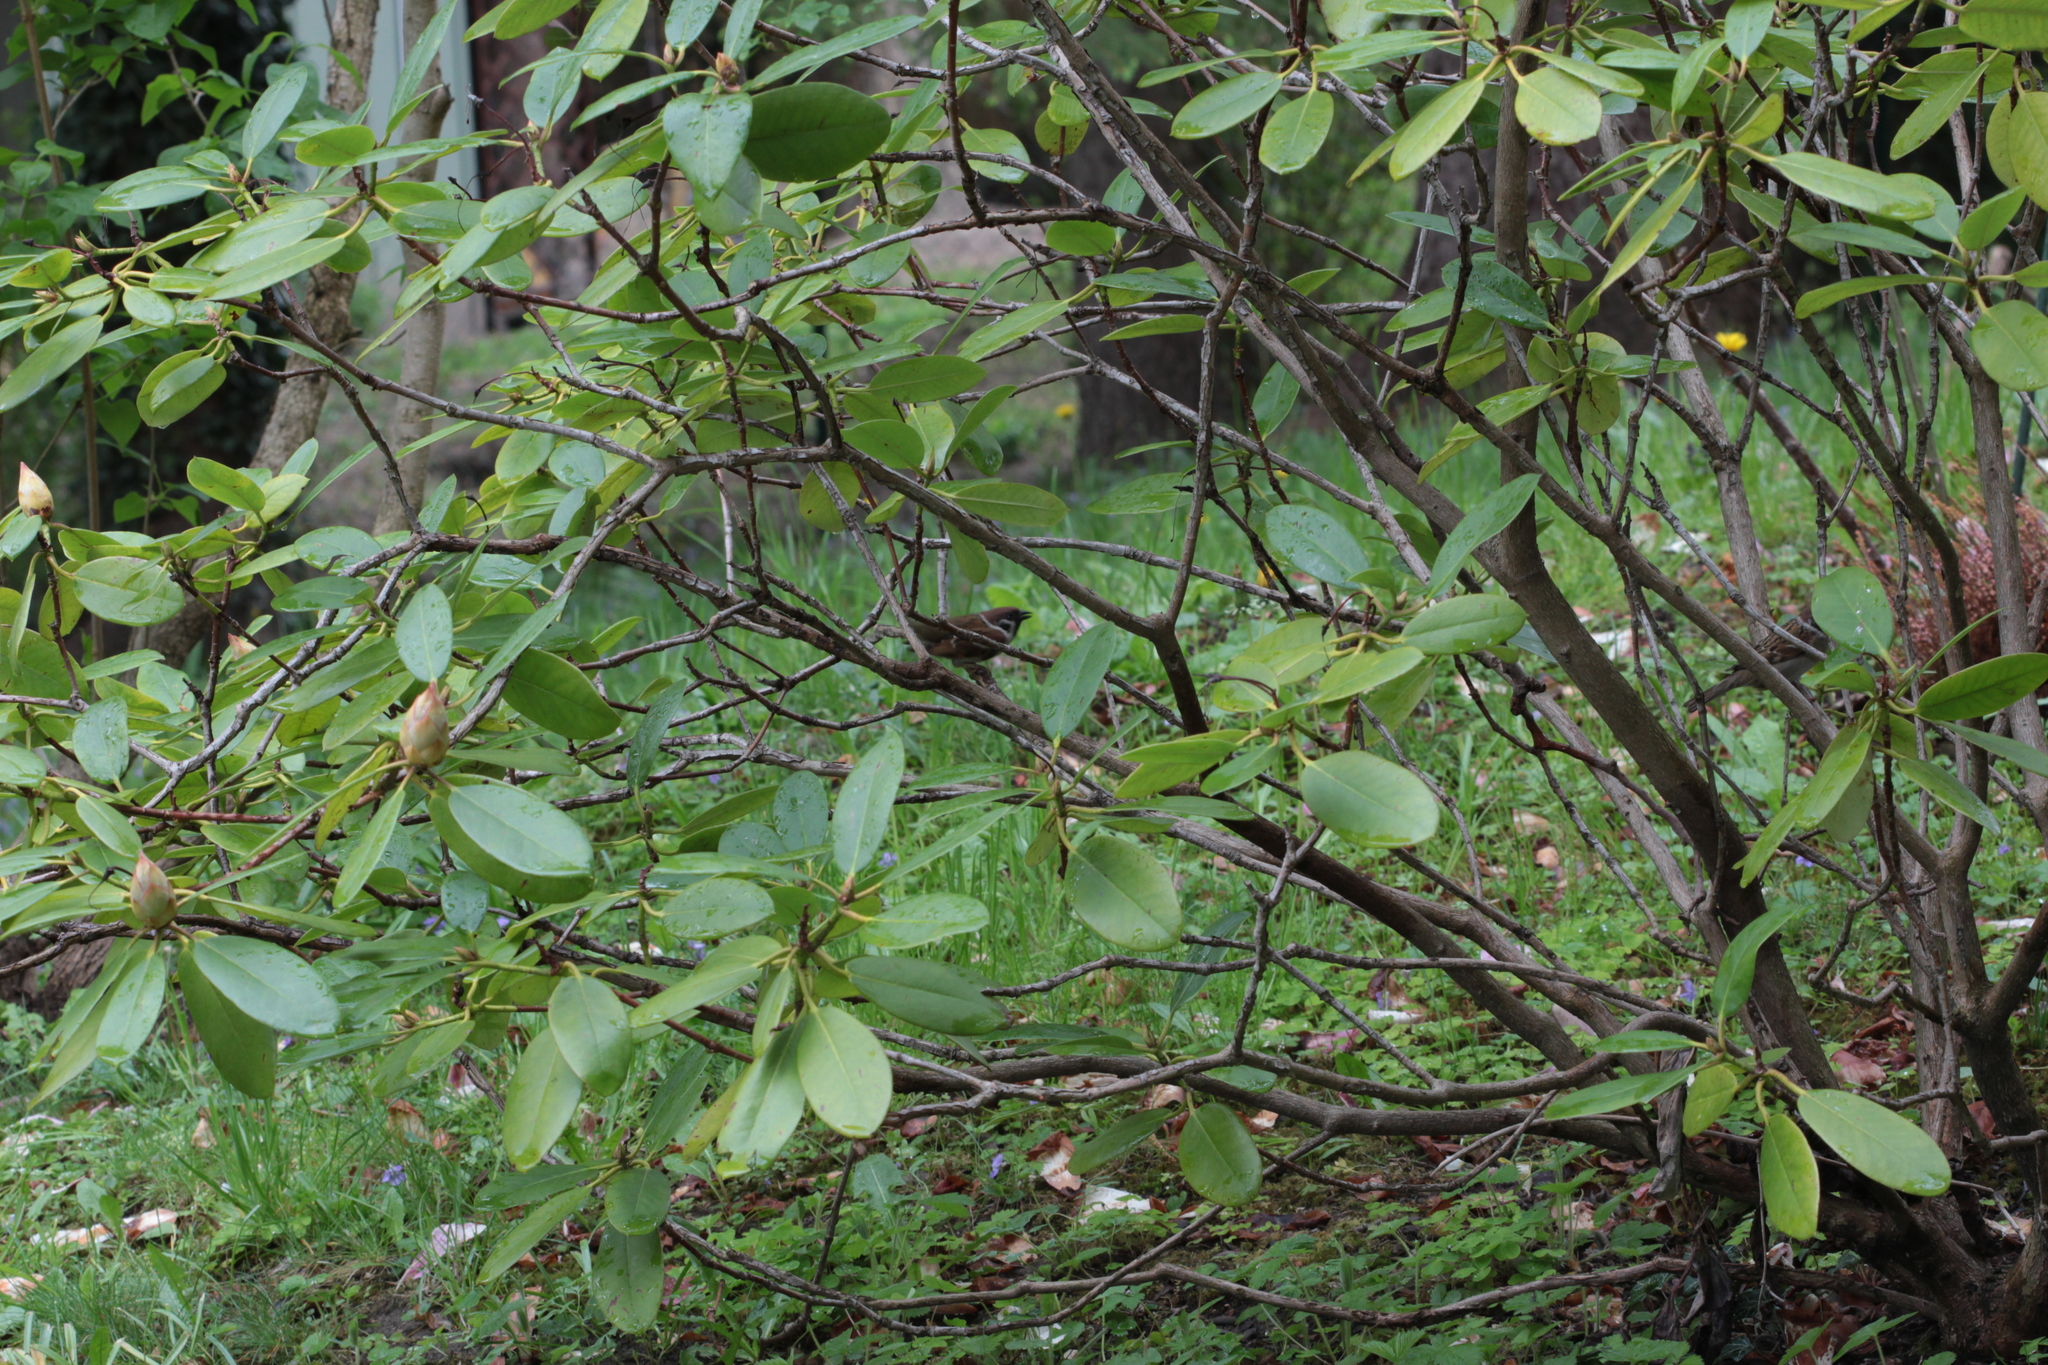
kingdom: Animalia
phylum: Chordata
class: Aves
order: Passeriformes
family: Passeridae
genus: Passer
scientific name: Passer montanus
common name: Eurasian tree sparrow
